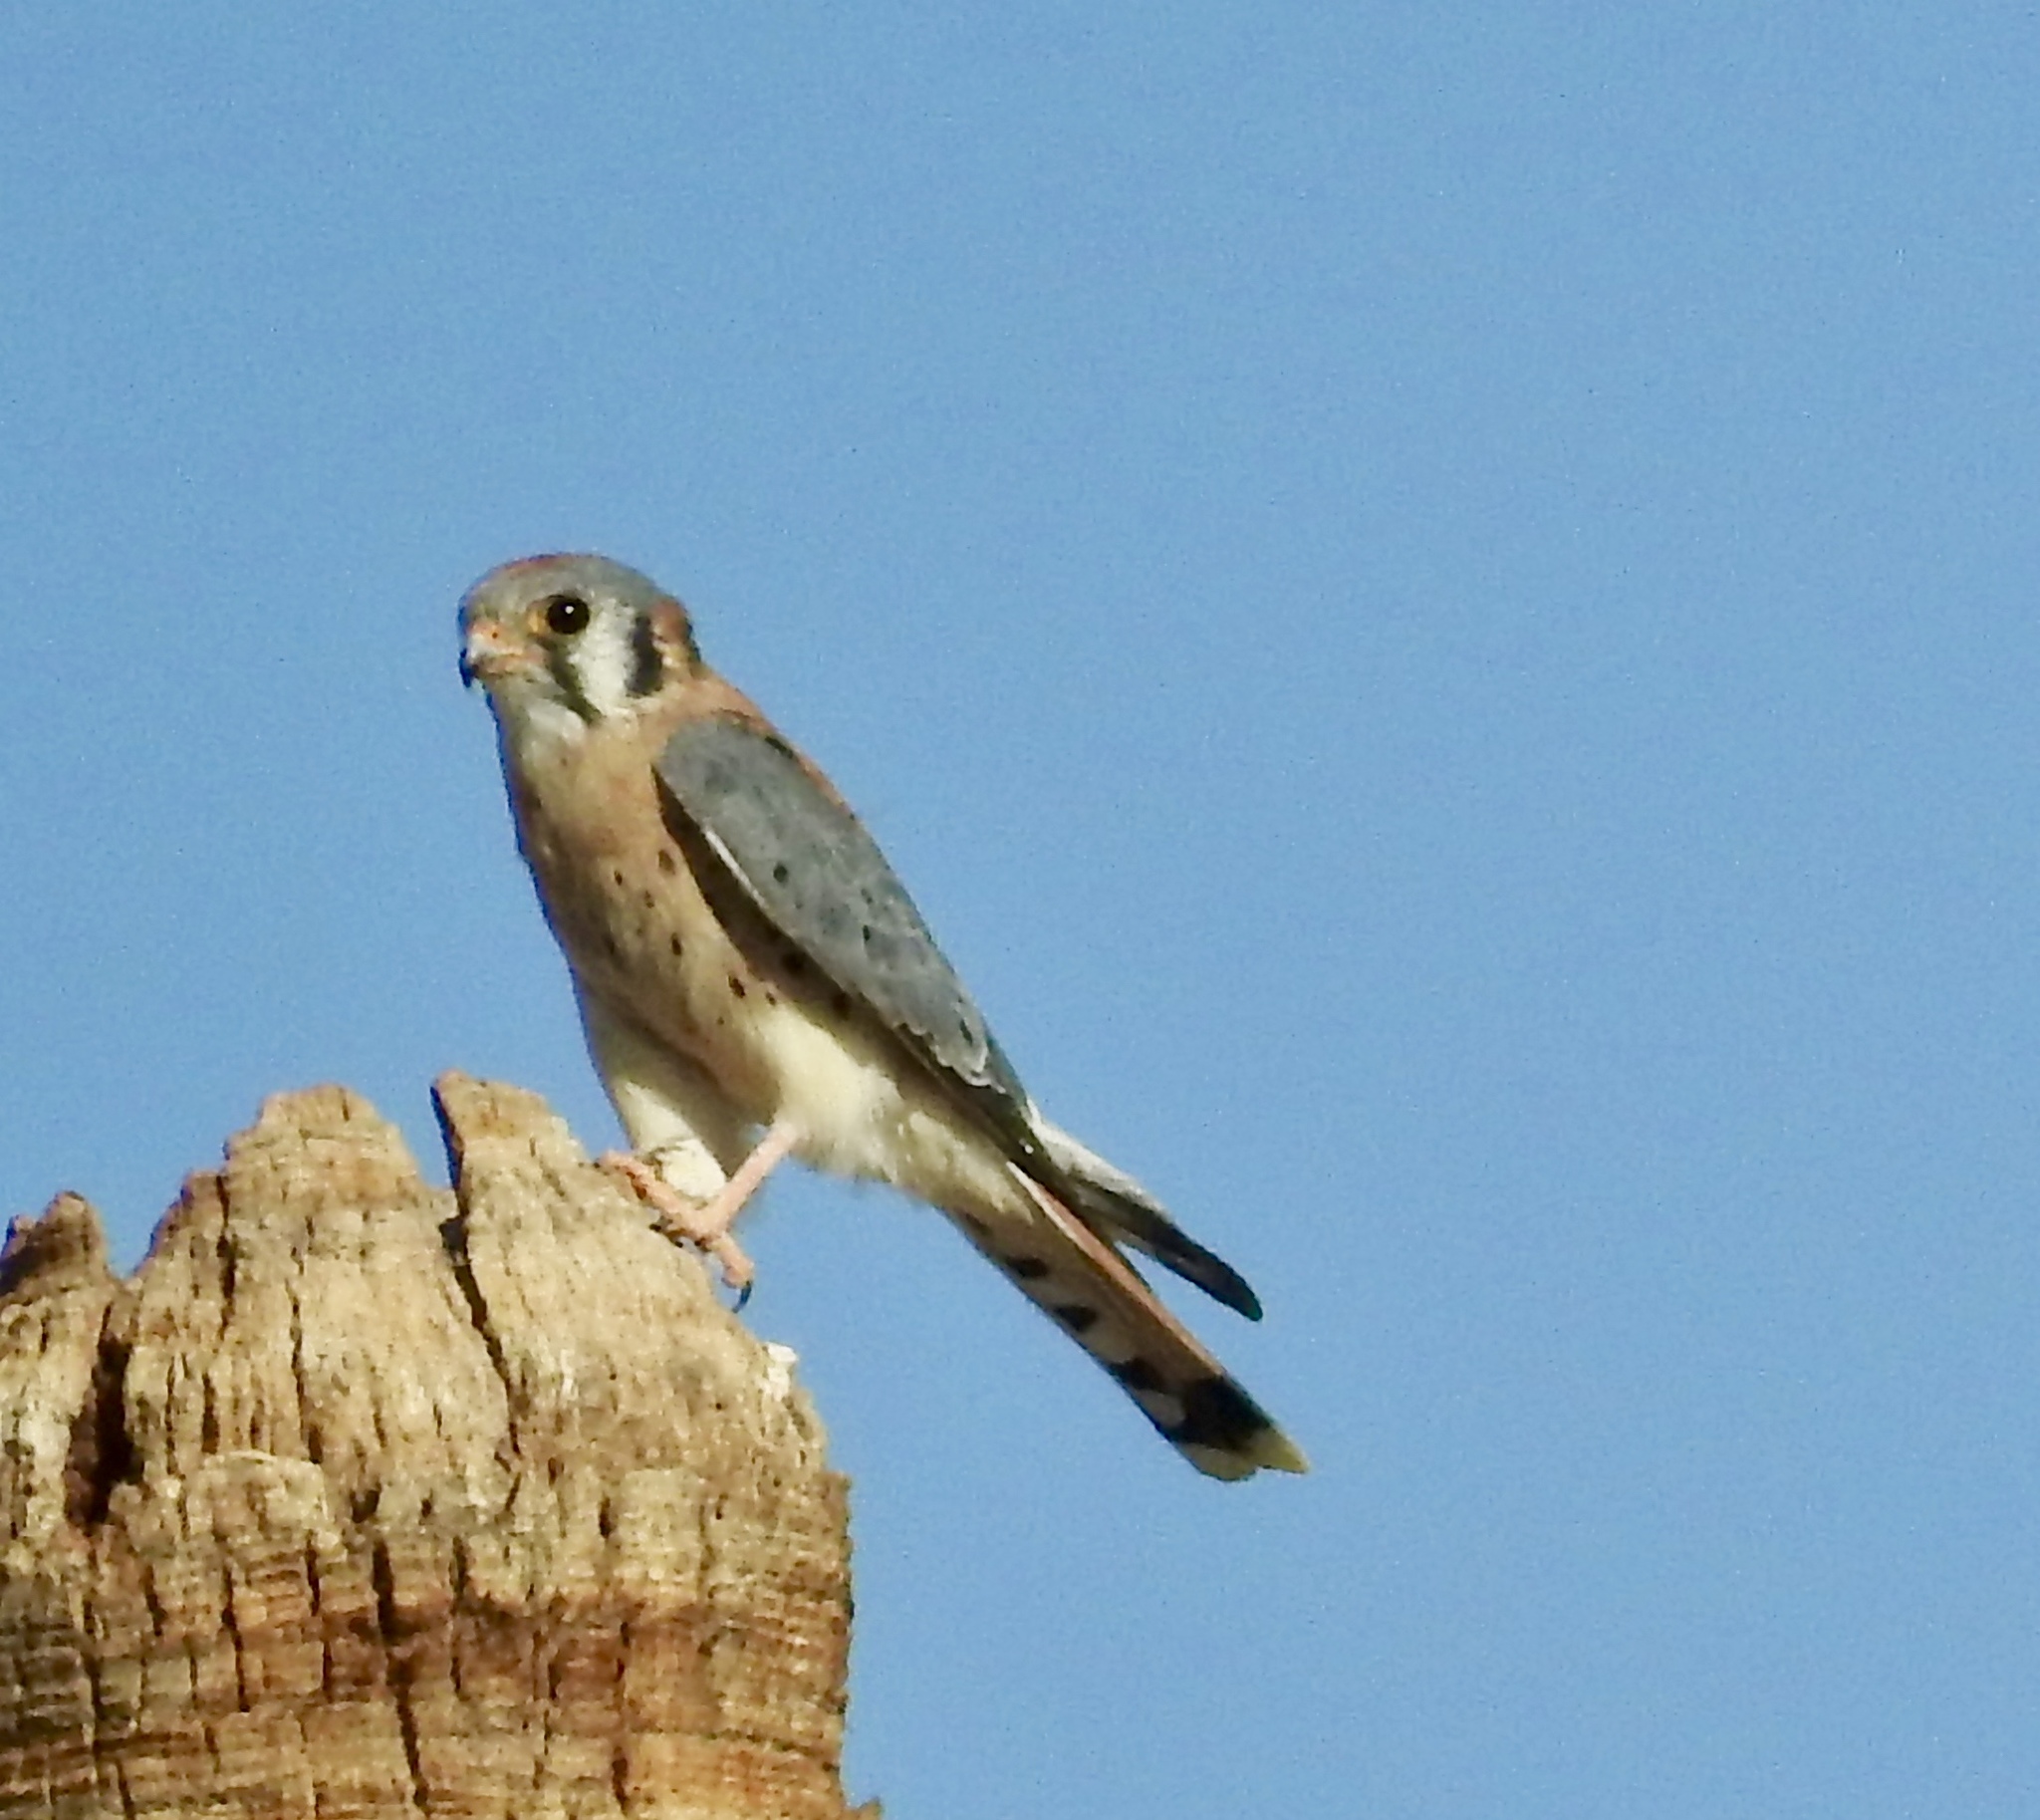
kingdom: Animalia
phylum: Chordata
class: Aves
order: Falconiformes
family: Falconidae
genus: Falco
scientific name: Falco sparverius
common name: American kestrel
